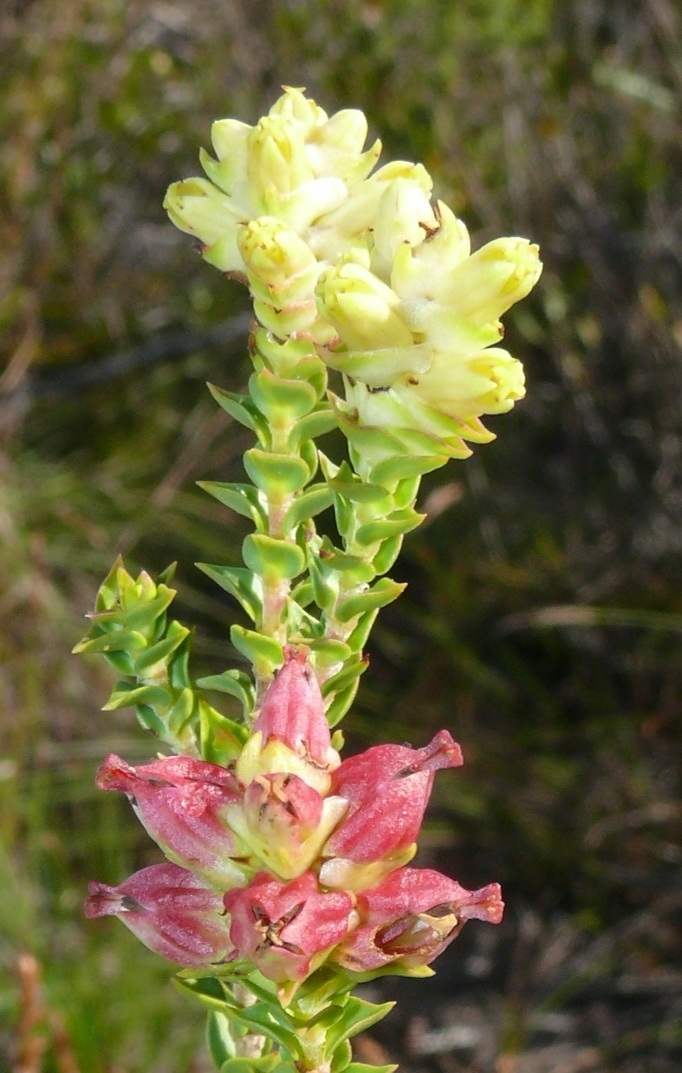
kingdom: Plantae
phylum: Tracheophyta
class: Magnoliopsida
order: Myrtales
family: Penaeaceae
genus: Penaea
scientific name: Penaea mucronata
